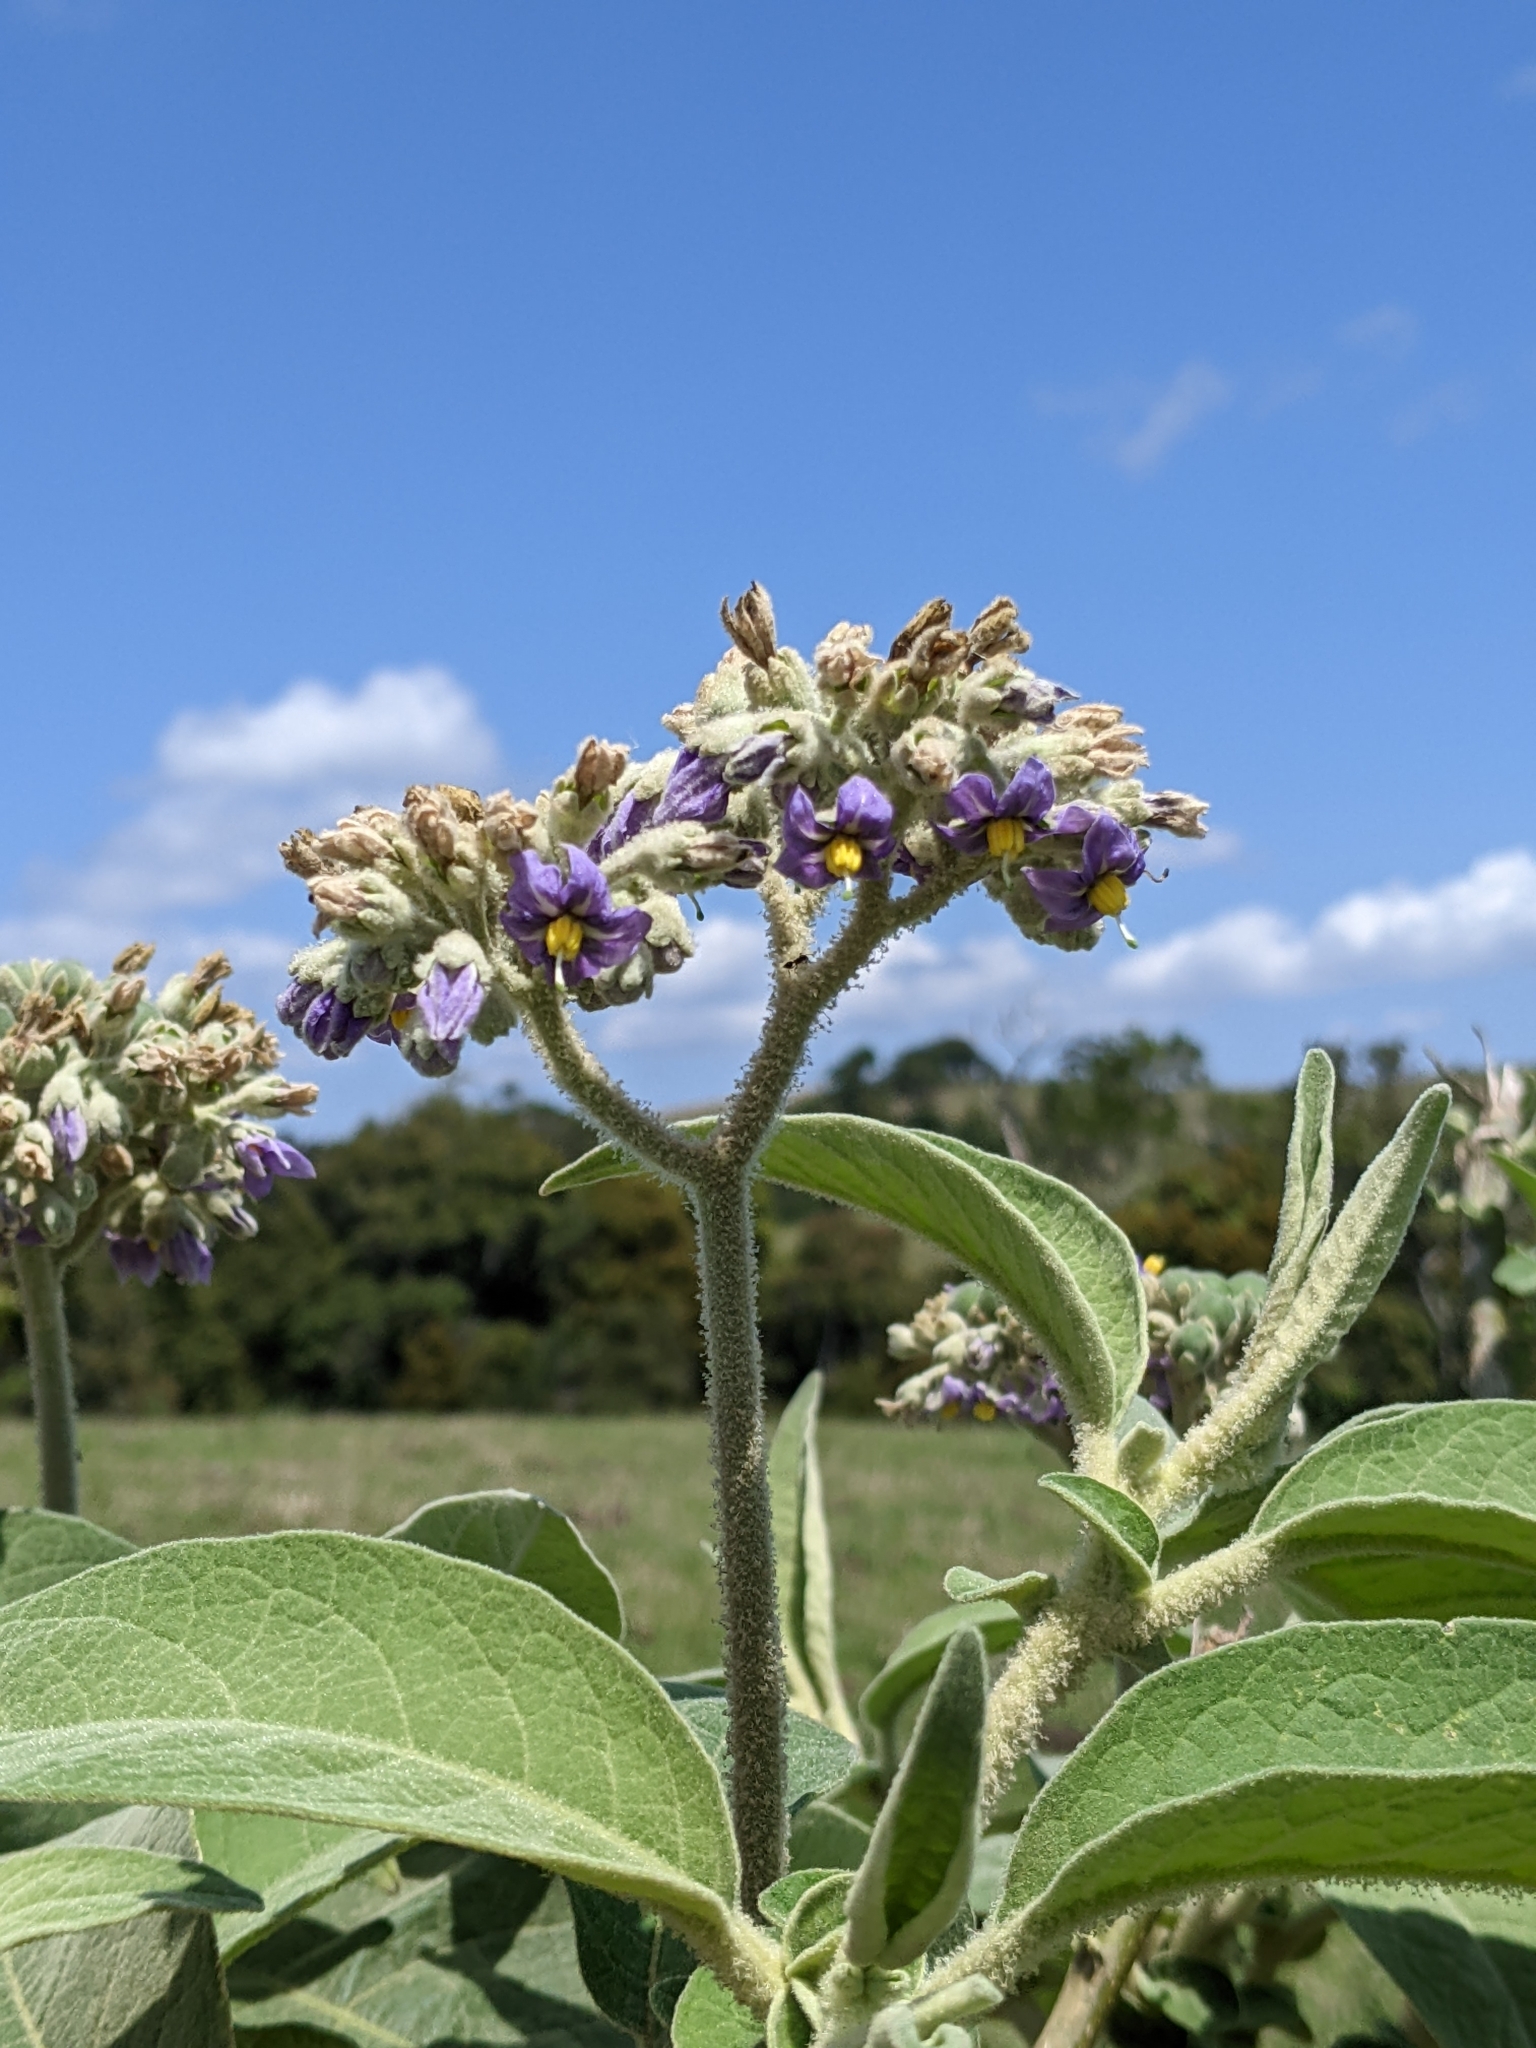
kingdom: Plantae
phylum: Tracheophyta
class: Magnoliopsida
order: Solanales
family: Solanaceae
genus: Solanum
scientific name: Solanum mauritianum
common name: Earleaf nightshade
